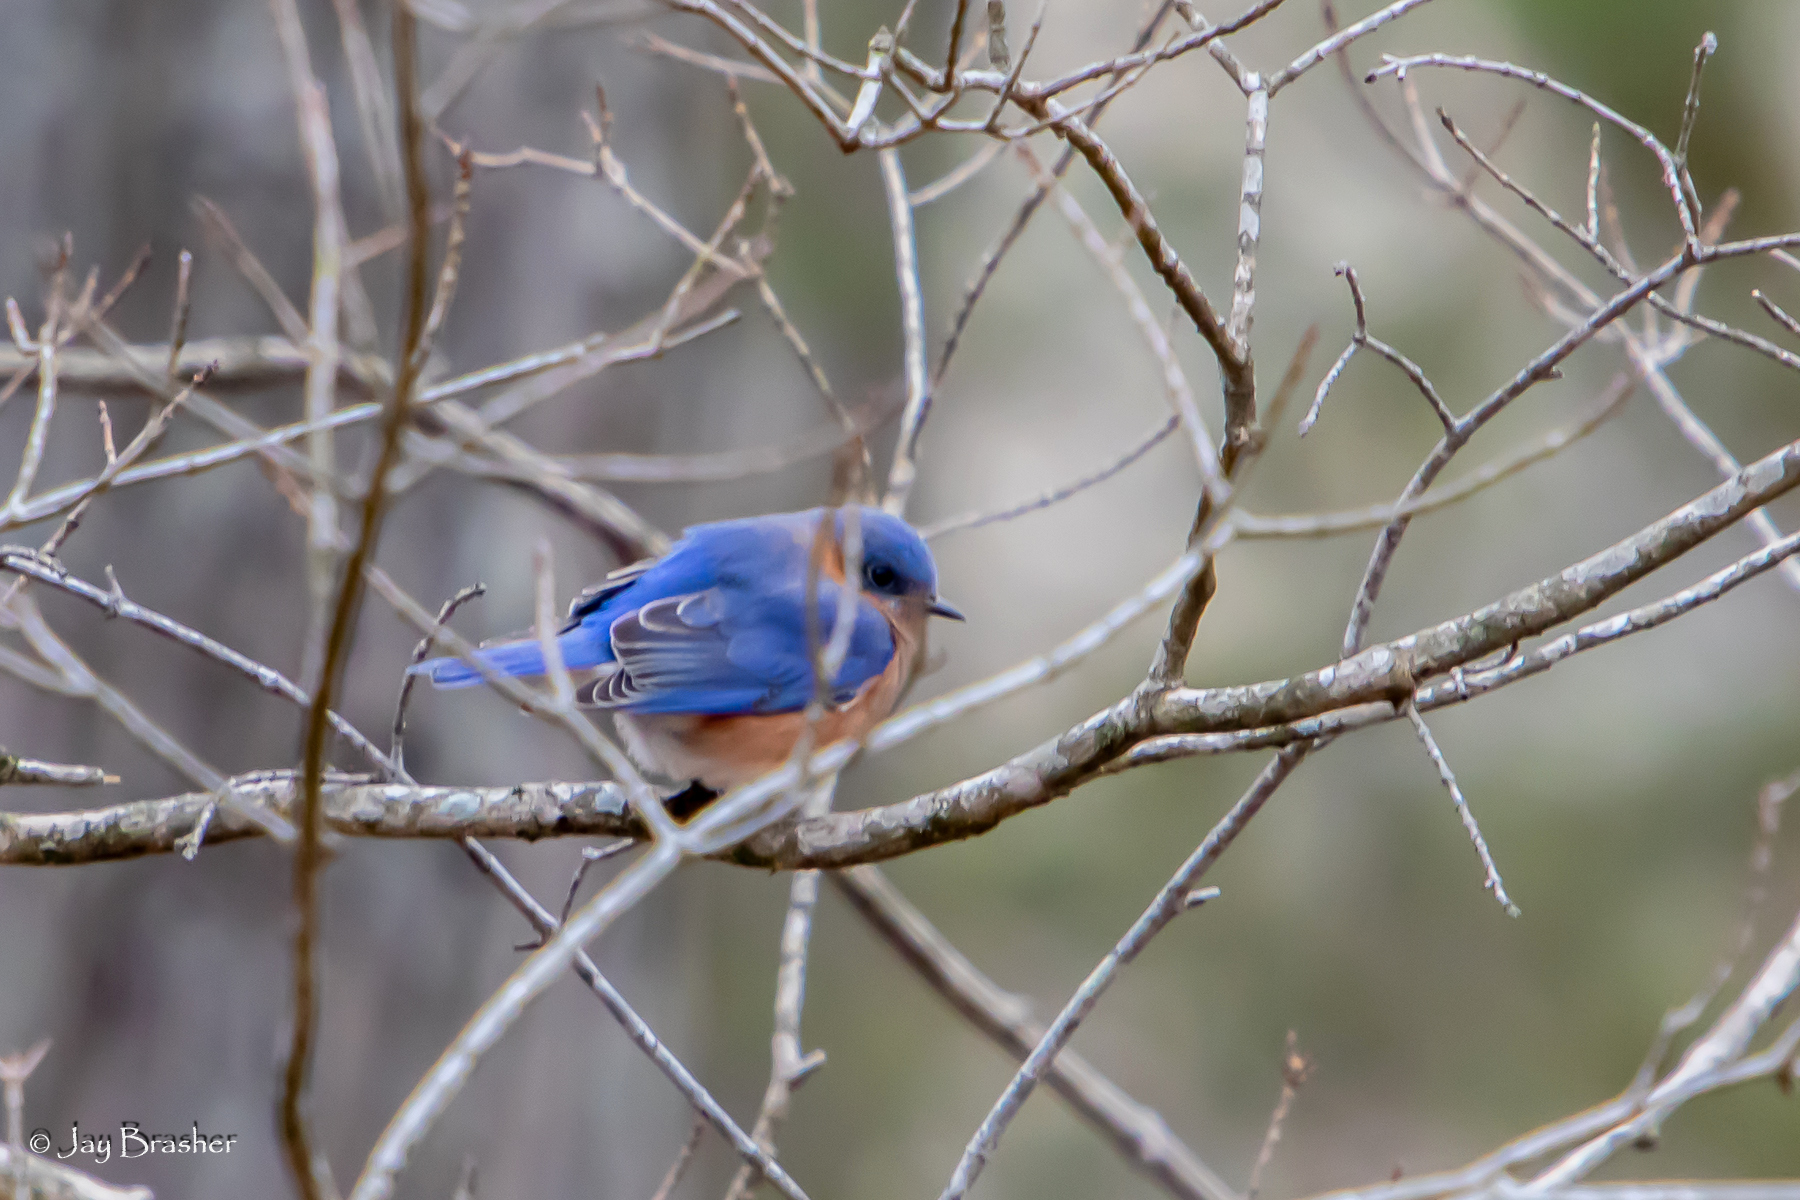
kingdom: Animalia
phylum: Chordata
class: Aves
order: Passeriformes
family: Turdidae
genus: Sialia
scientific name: Sialia sialis
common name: Eastern bluebird
